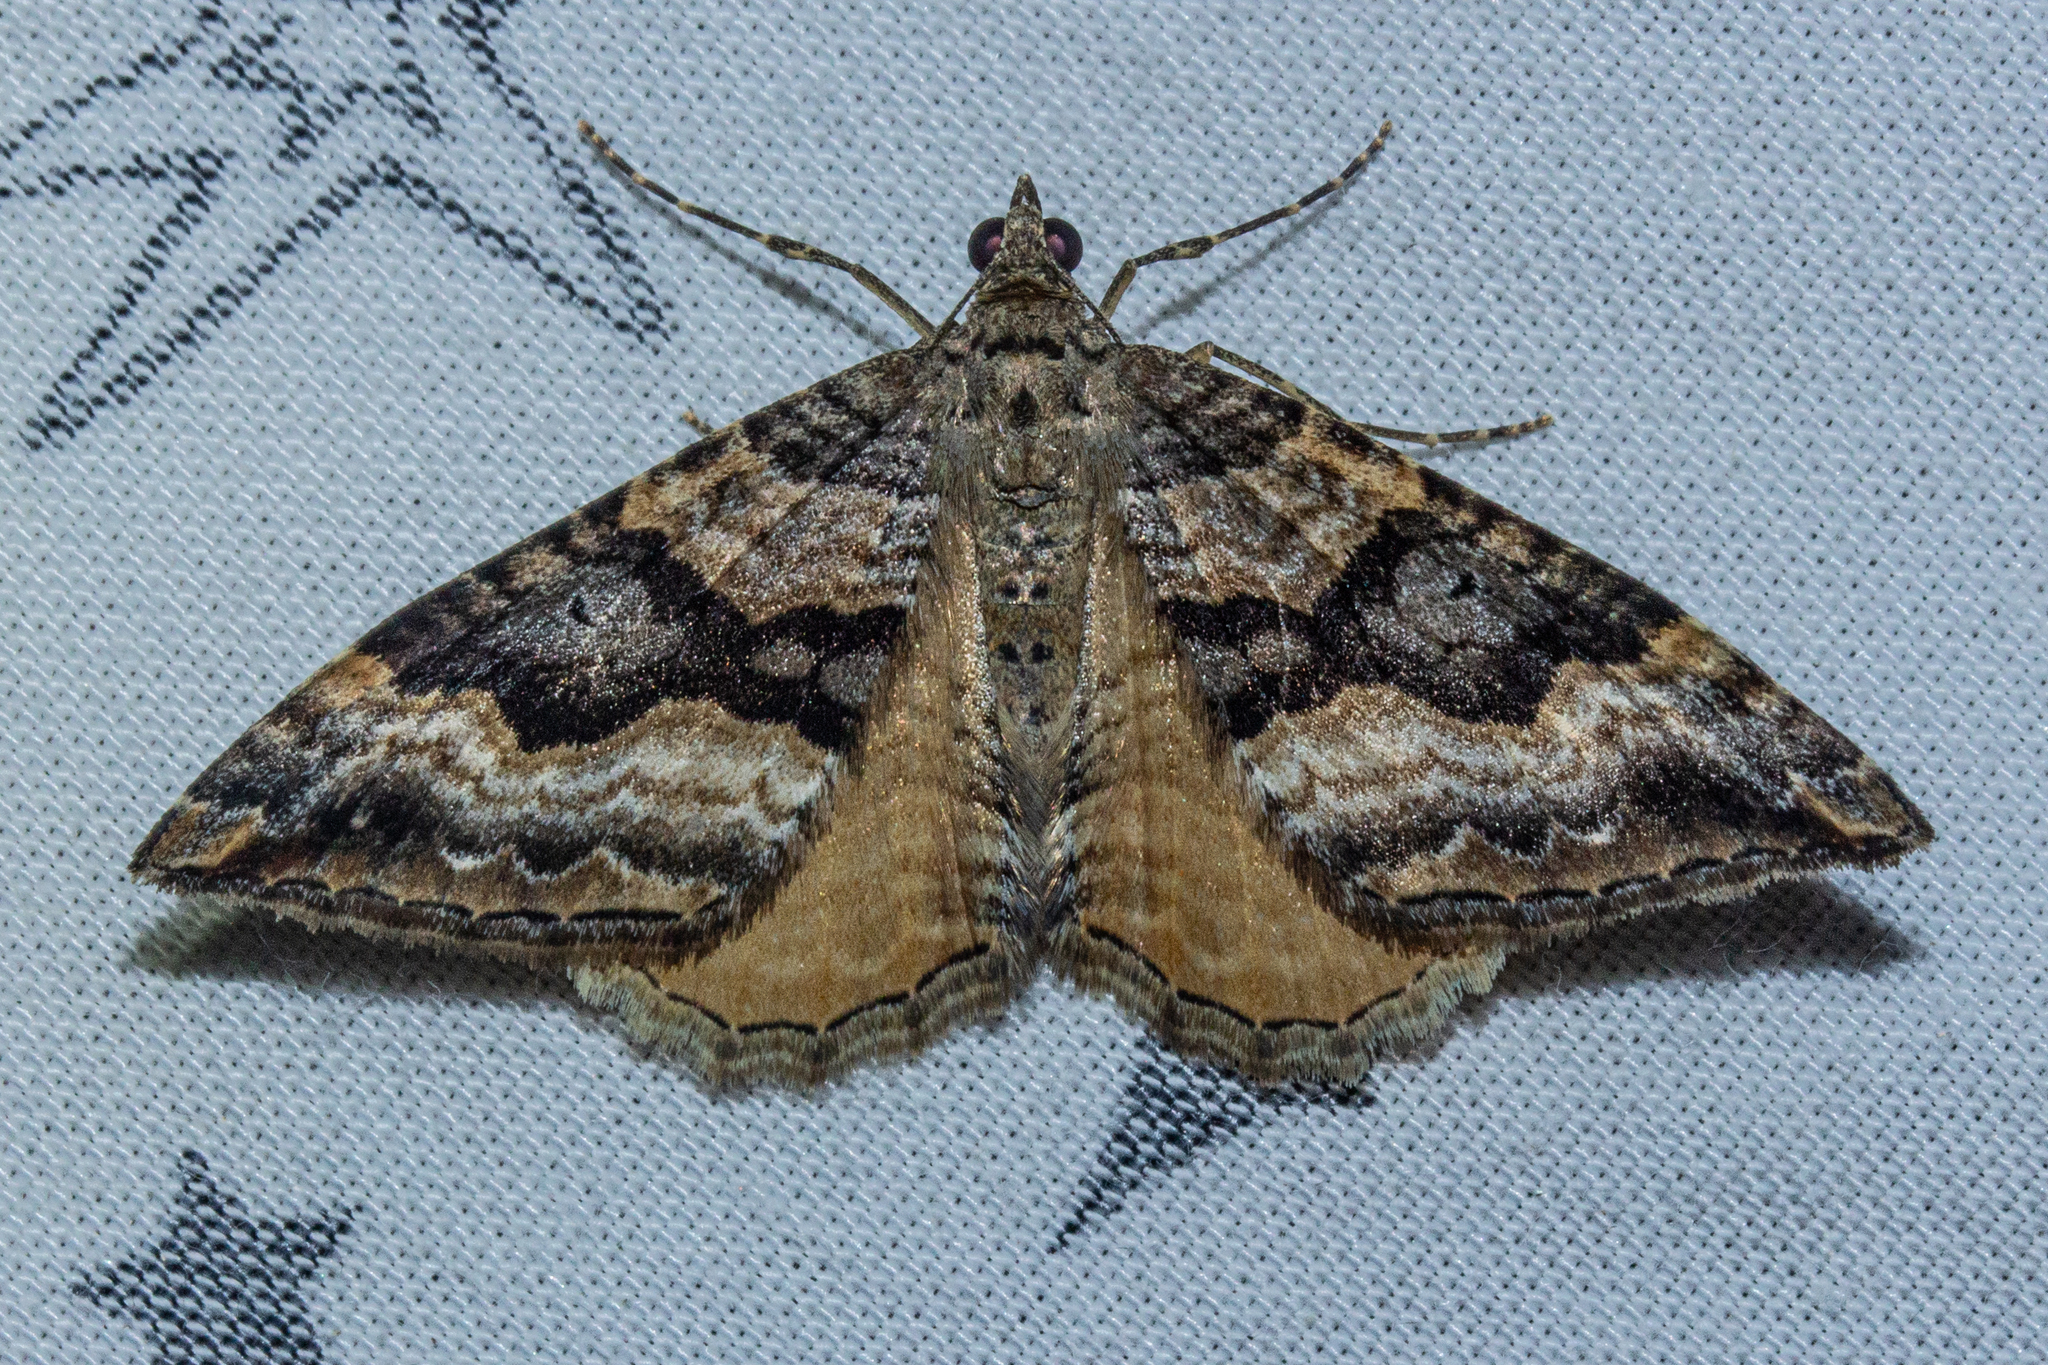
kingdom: Animalia
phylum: Arthropoda
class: Insecta
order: Lepidoptera
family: Geometridae
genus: Hydriomena
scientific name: Hydriomena deltoidata
